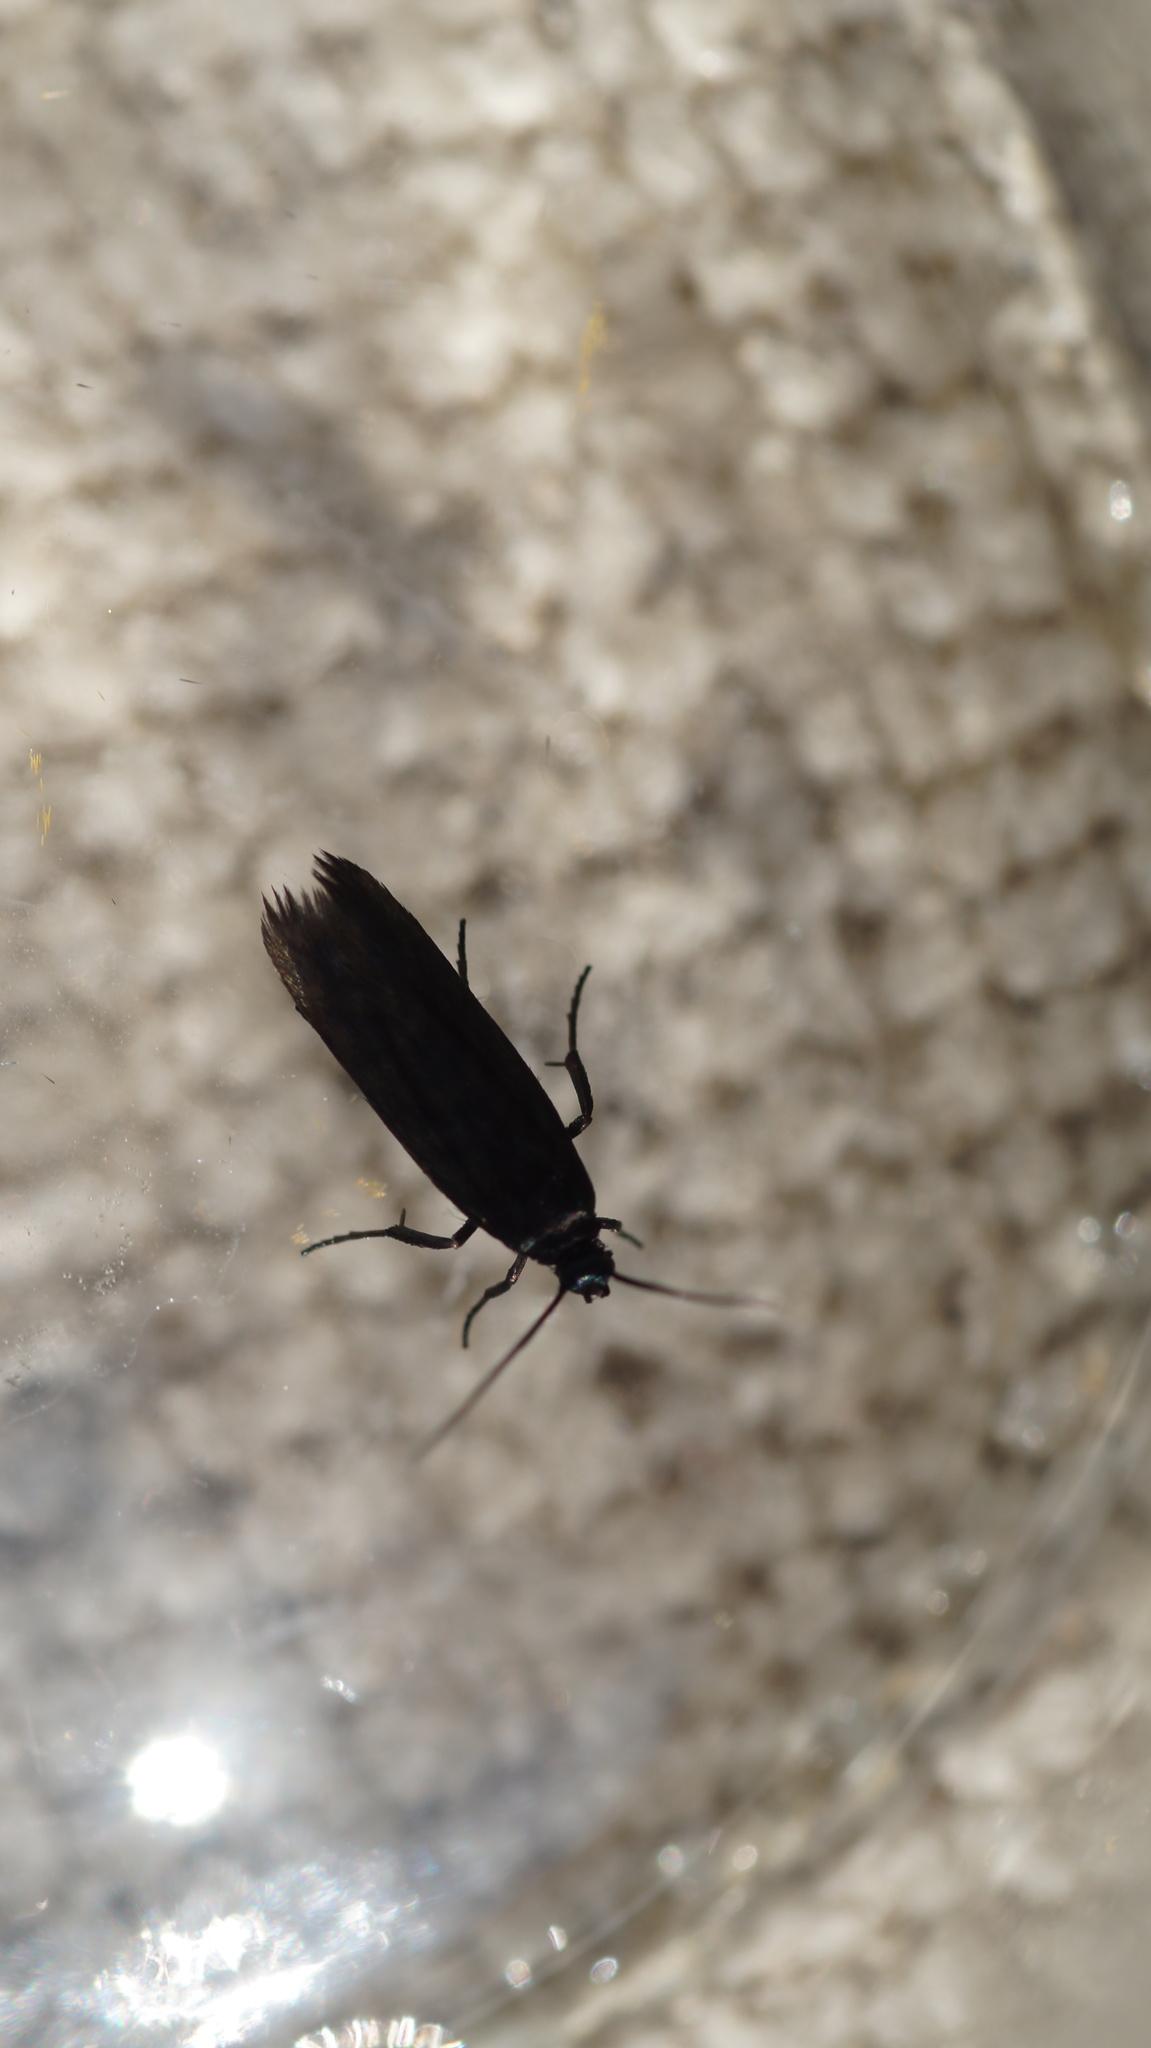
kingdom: Animalia
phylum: Arthropoda
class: Insecta
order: Lepidoptera
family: Scythrididae
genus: Scythris
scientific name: Scythris sinensis
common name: Kentish owlet
